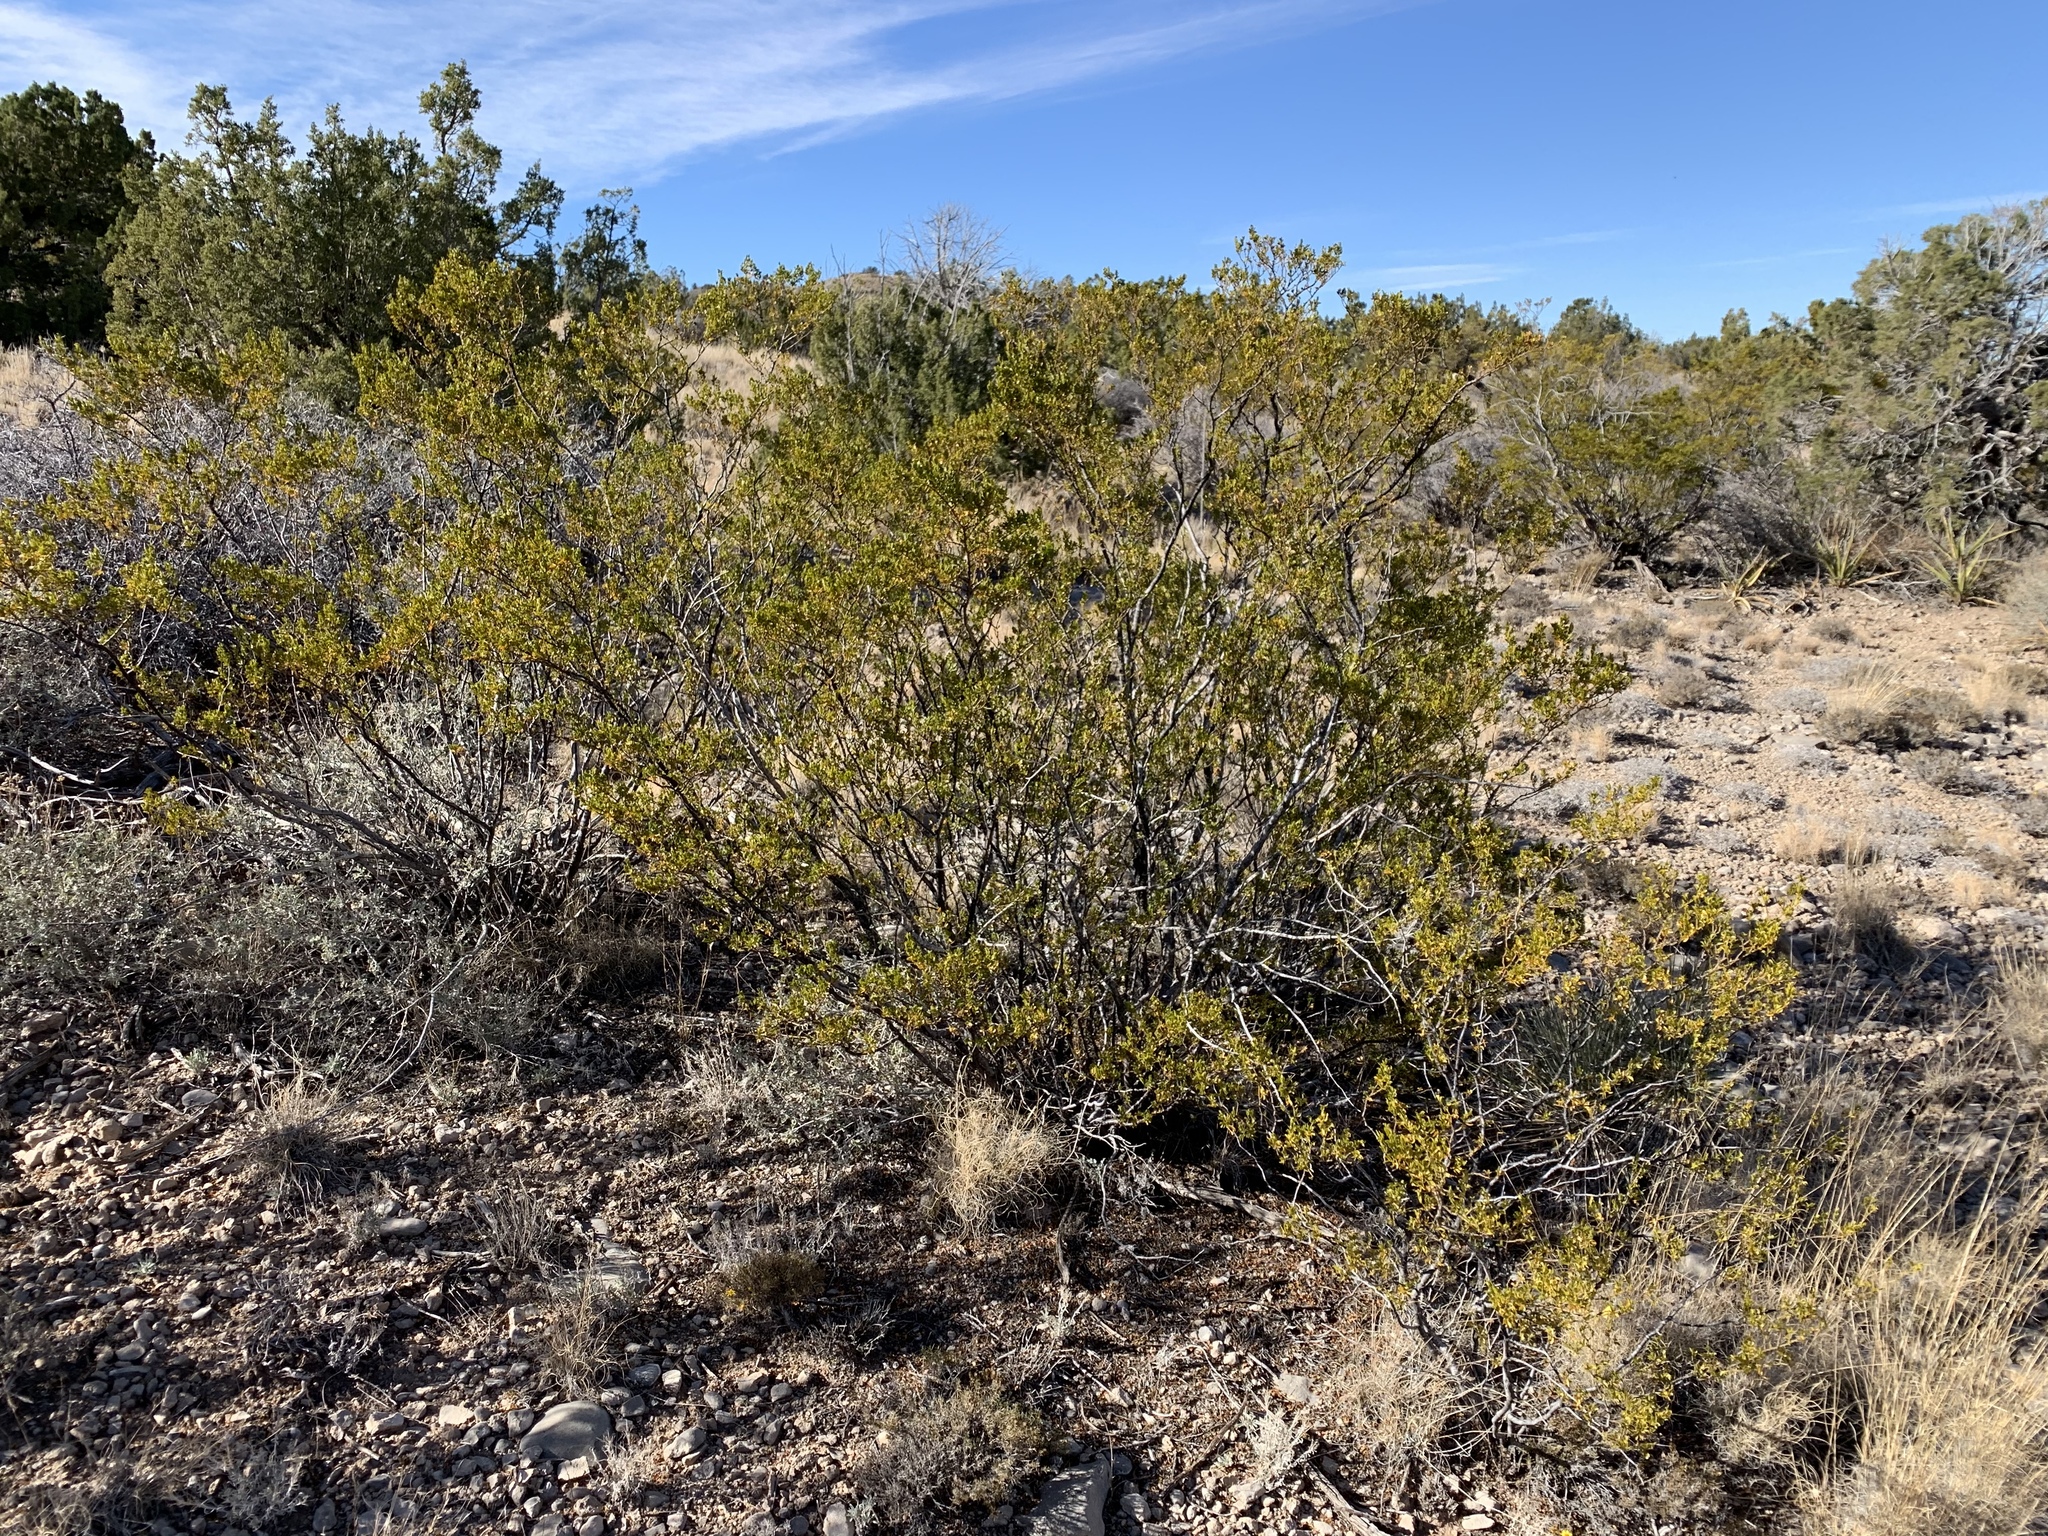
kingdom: Plantae
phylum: Tracheophyta
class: Magnoliopsida
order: Zygophyllales
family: Zygophyllaceae
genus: Larrea
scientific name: Larrea tridentata
